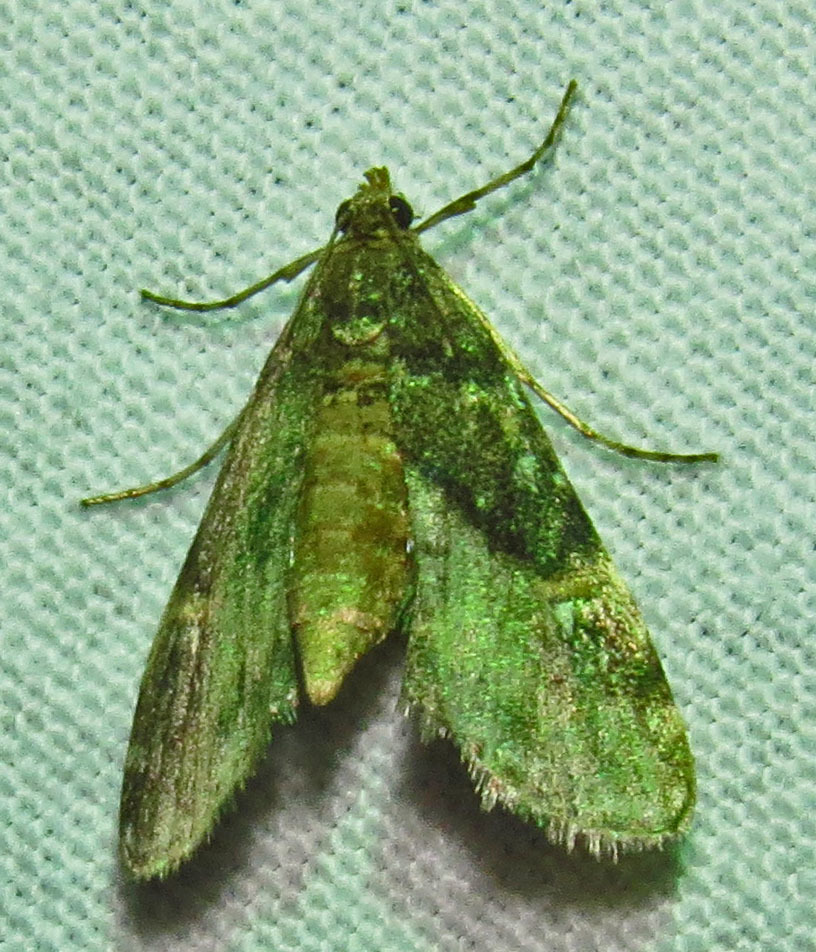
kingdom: Animalia
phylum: Arthropoda
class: Insecta
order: Lepidoptera
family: Crambidae
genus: Elophila
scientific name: Elophila obliteralis
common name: Waterlily leafcutter moth
